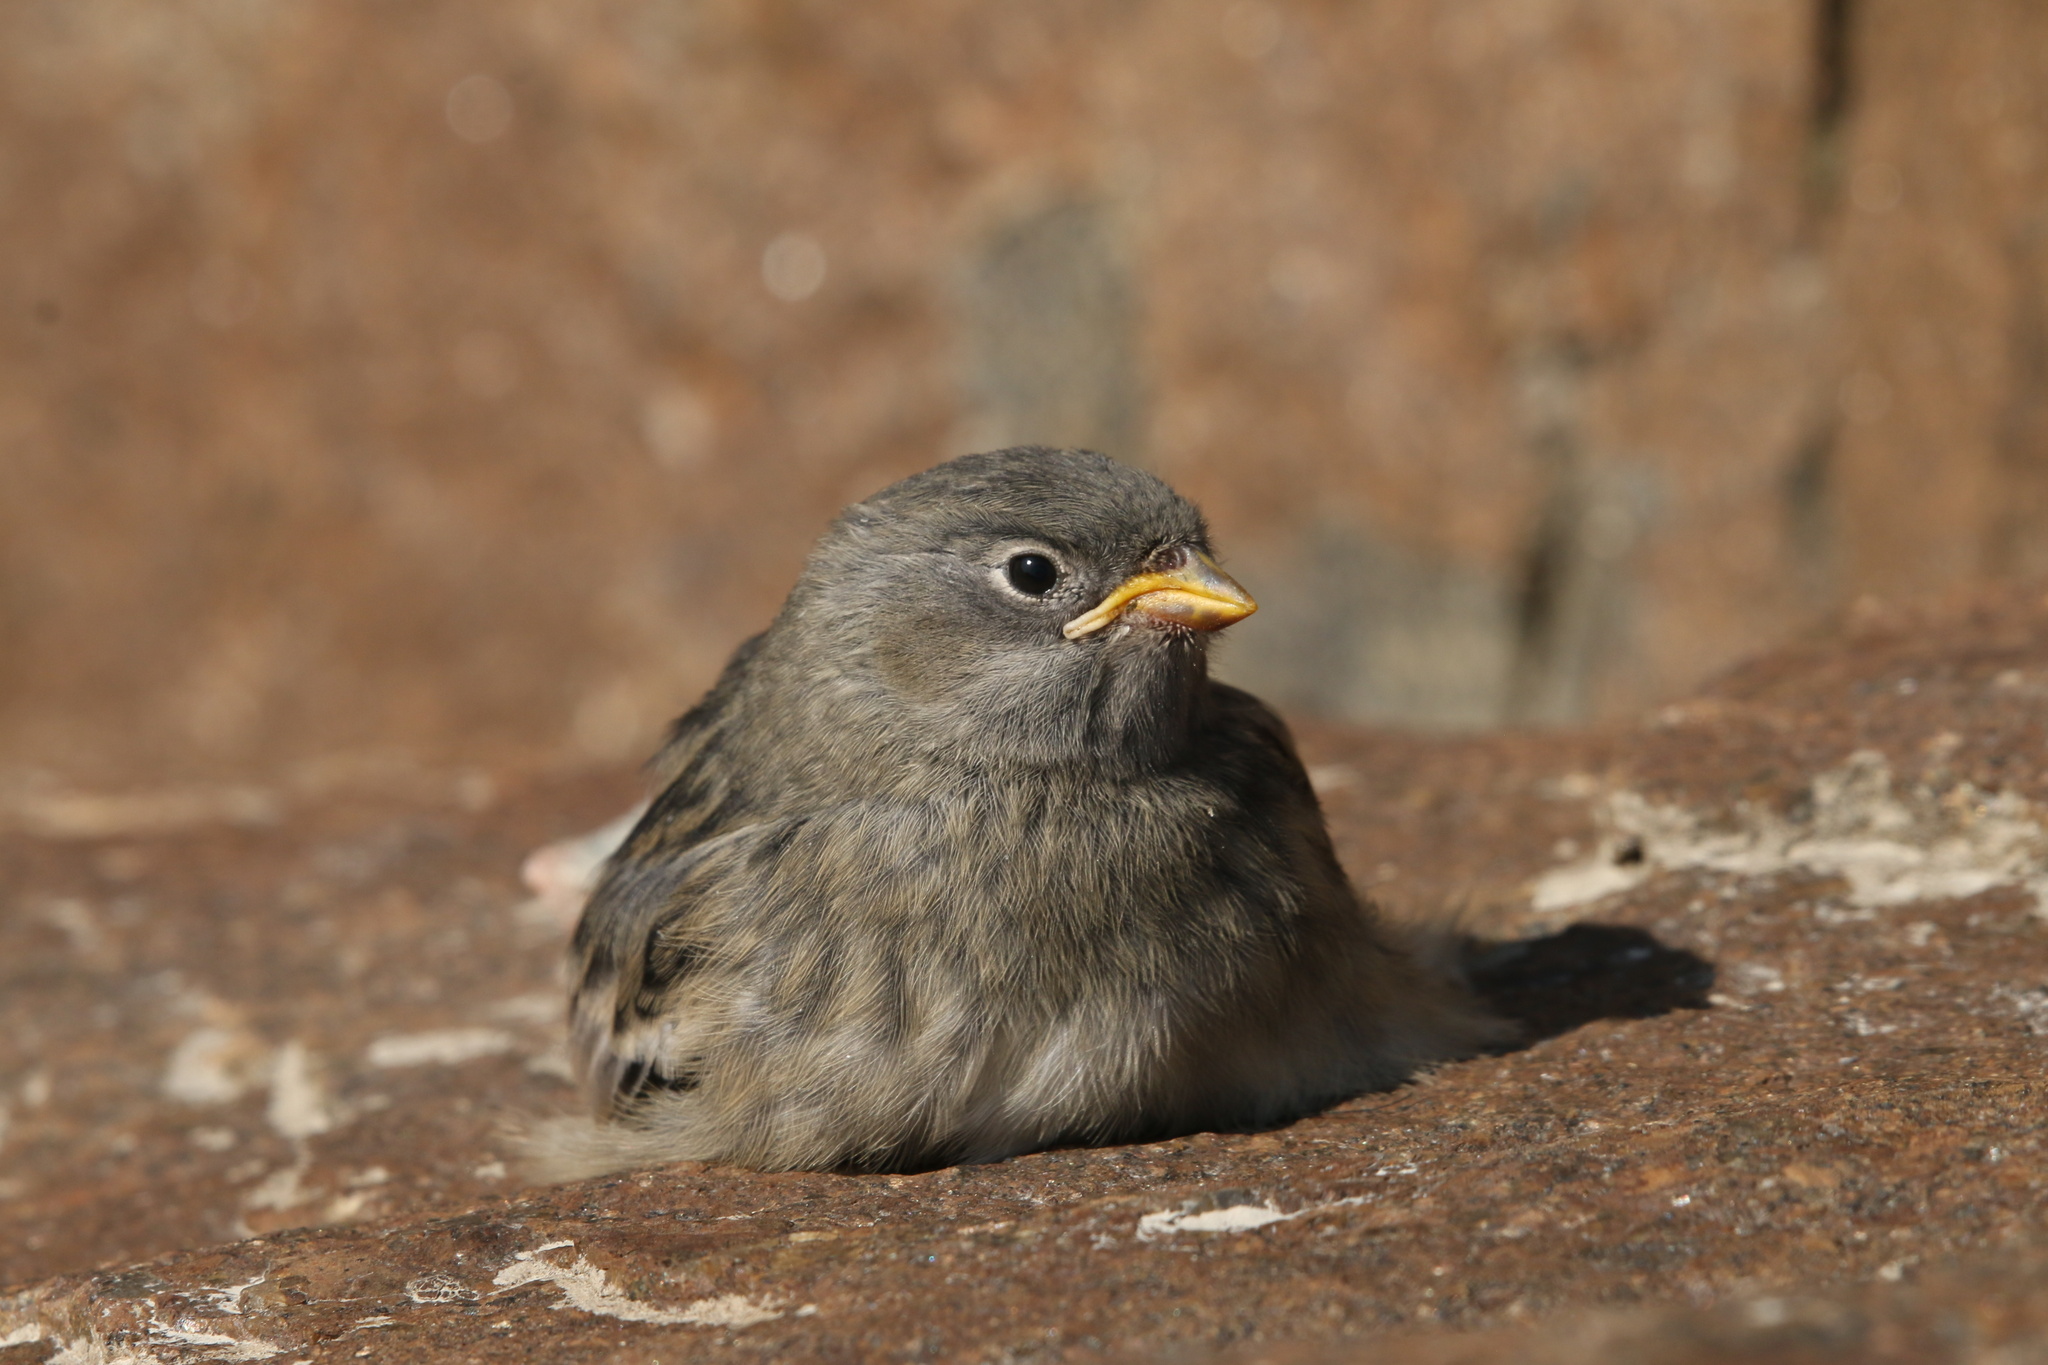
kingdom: Animalia
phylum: Chordata
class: Aves
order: Passeriformes
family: Calcariidae
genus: Plectrophenax
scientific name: Plectrophenax nivalis
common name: Snow bunting
